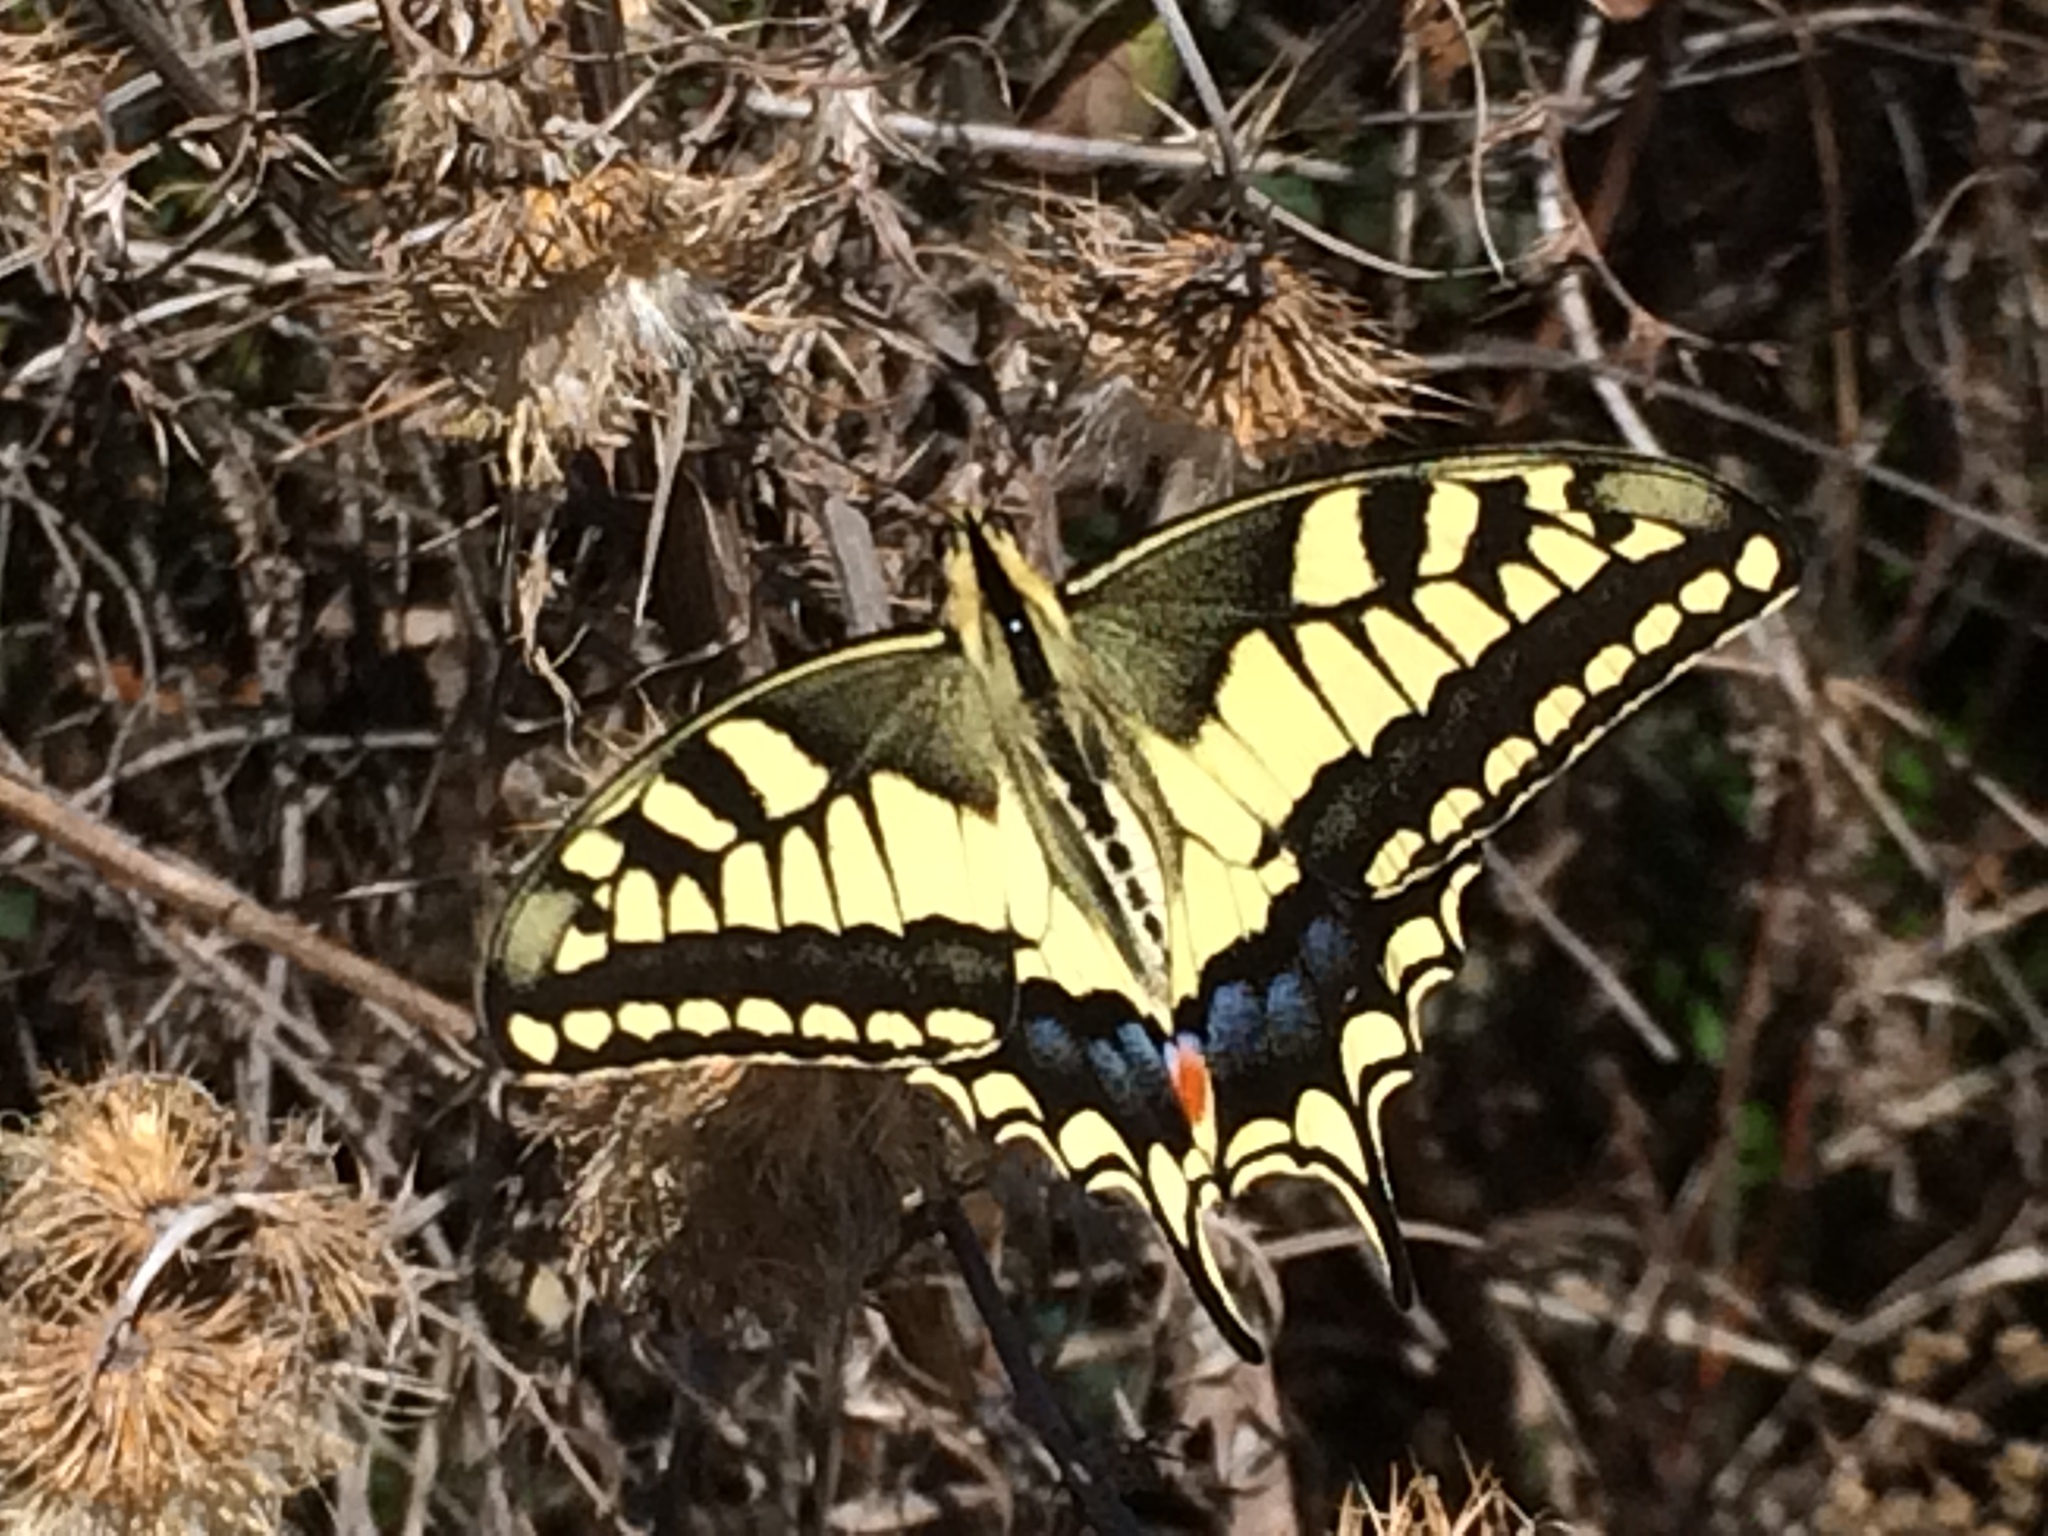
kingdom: Animalia
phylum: Arthropoda
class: Insecta
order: Lepidoptera
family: Papilionidae
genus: Papilio
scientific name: Papilio machaon
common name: Swallowtail
